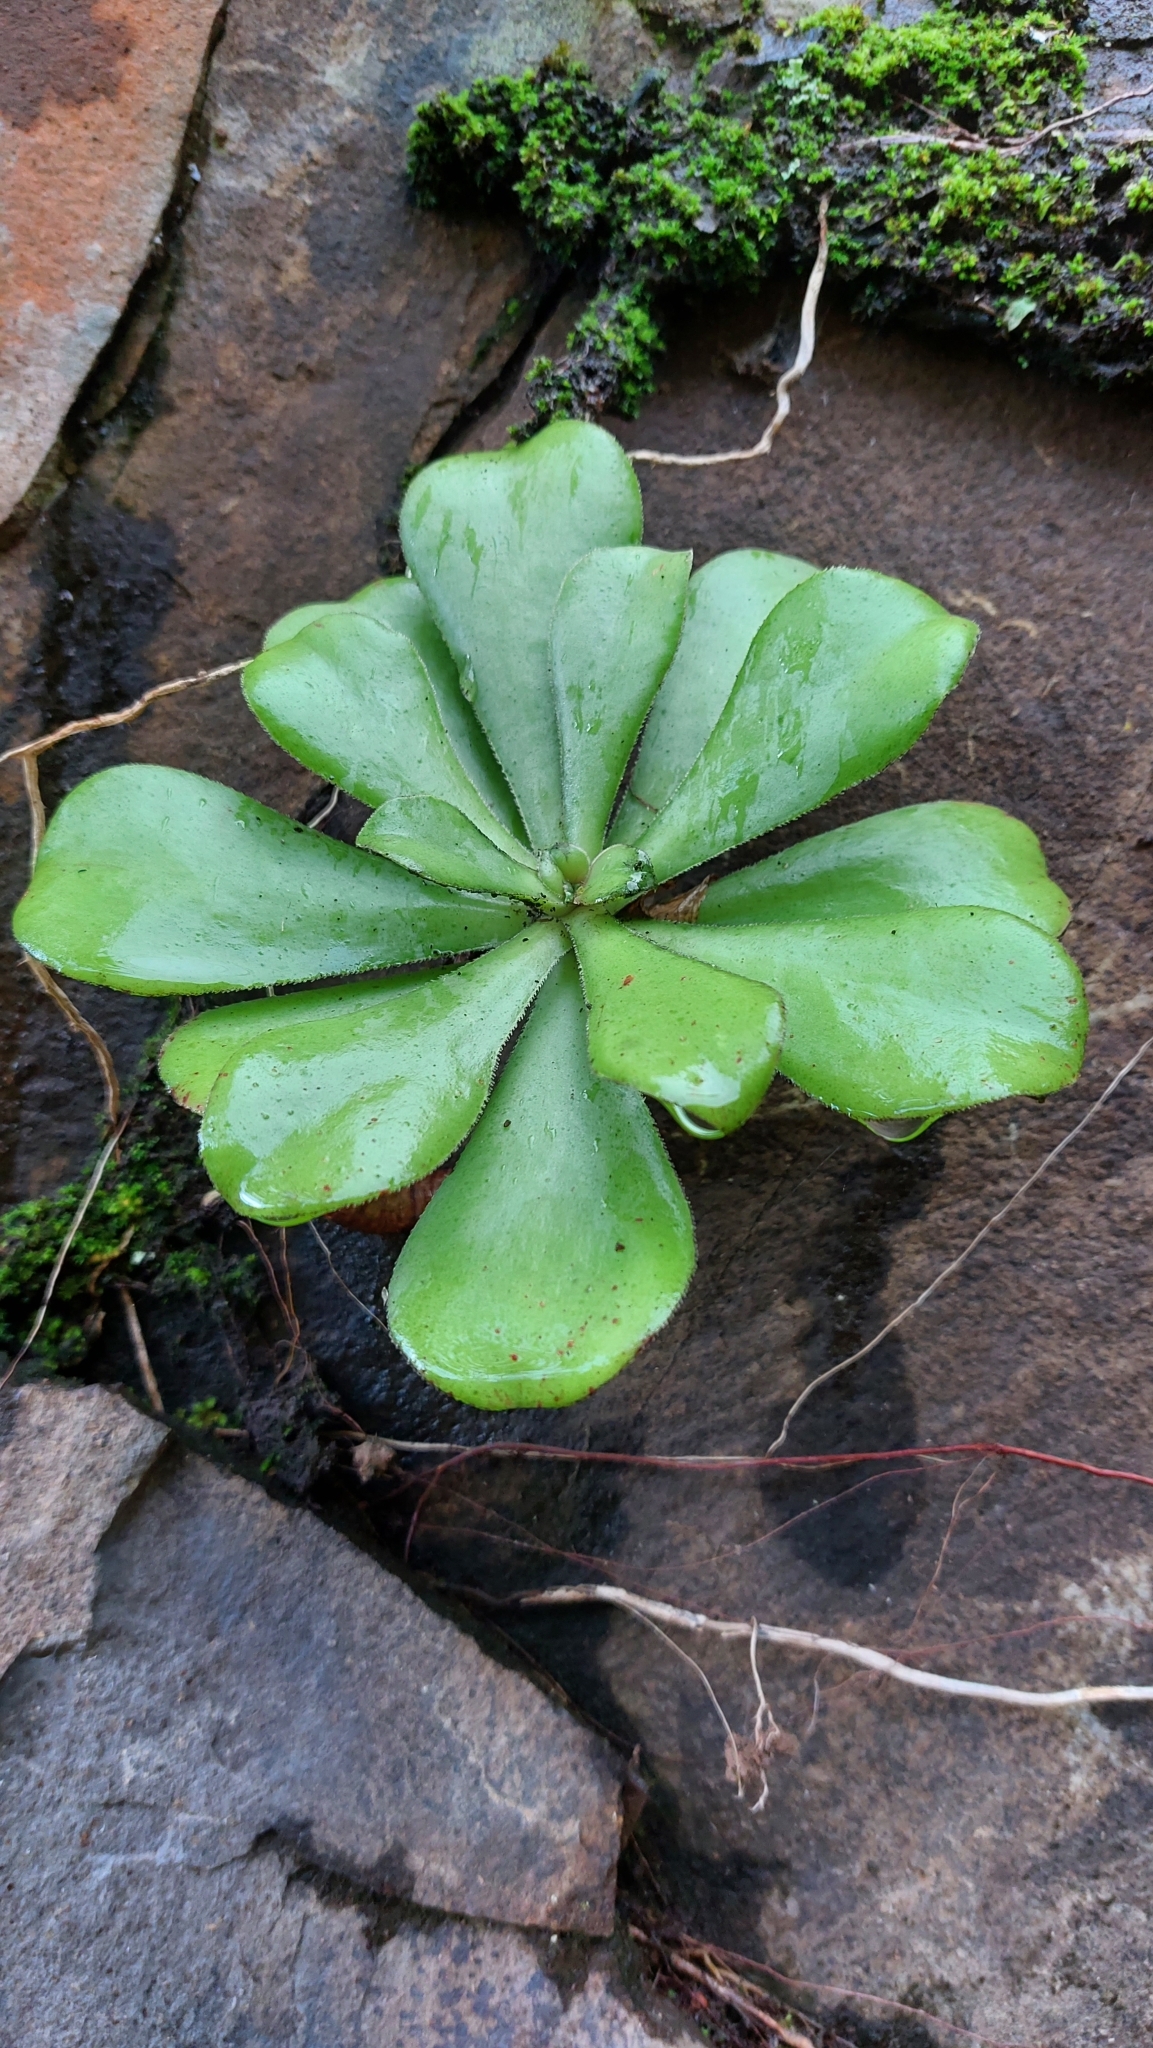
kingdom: Plantae
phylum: Tracheophyta
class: Magnoliopsida
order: Saxifragales
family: Crassulaceae
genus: Aeonium
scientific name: Aeonium glutinosum
